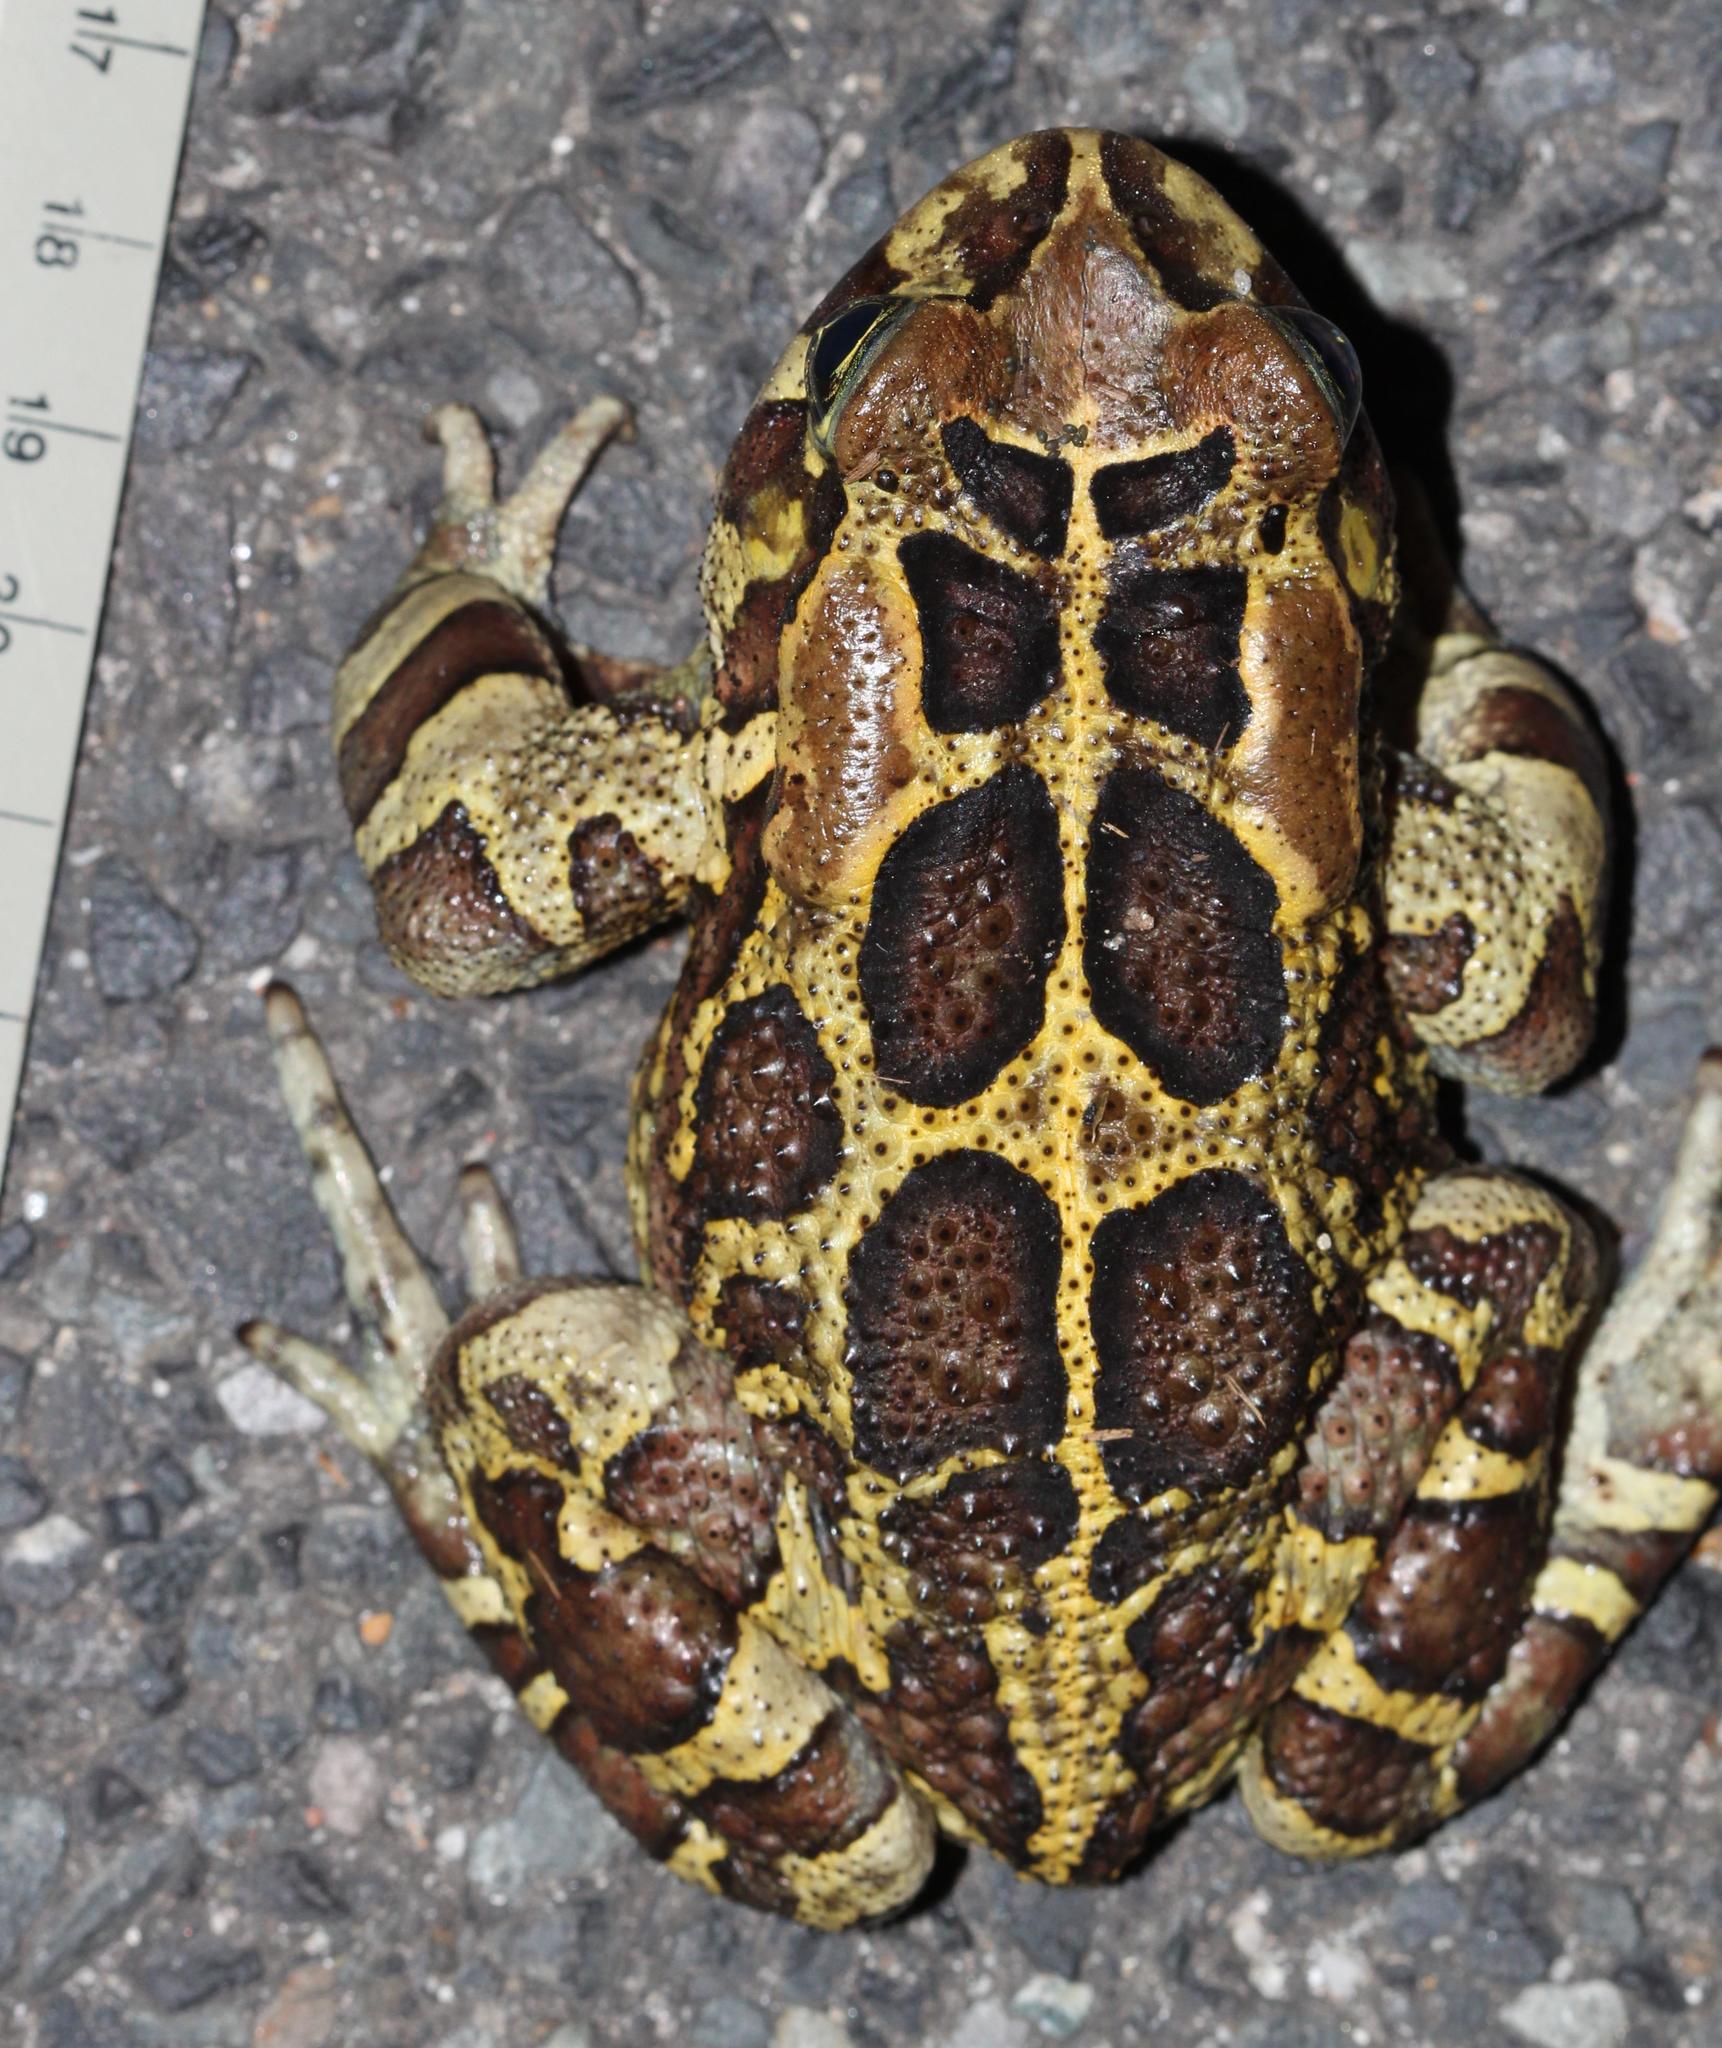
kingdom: Animalia
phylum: Chordata
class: Amphibia
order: Anura
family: Bufonidae
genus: Sclerophrys
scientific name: Sclerophrys pantherina
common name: Panther toad
